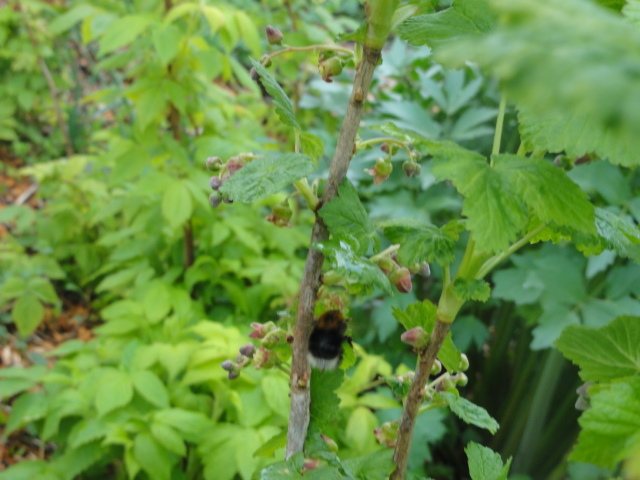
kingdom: Animalia
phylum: Arthropoda
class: Insecta
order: Hymenoptera
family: Apidae
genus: Bombus
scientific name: Bombus hypnorum
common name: New garden bumblebee
